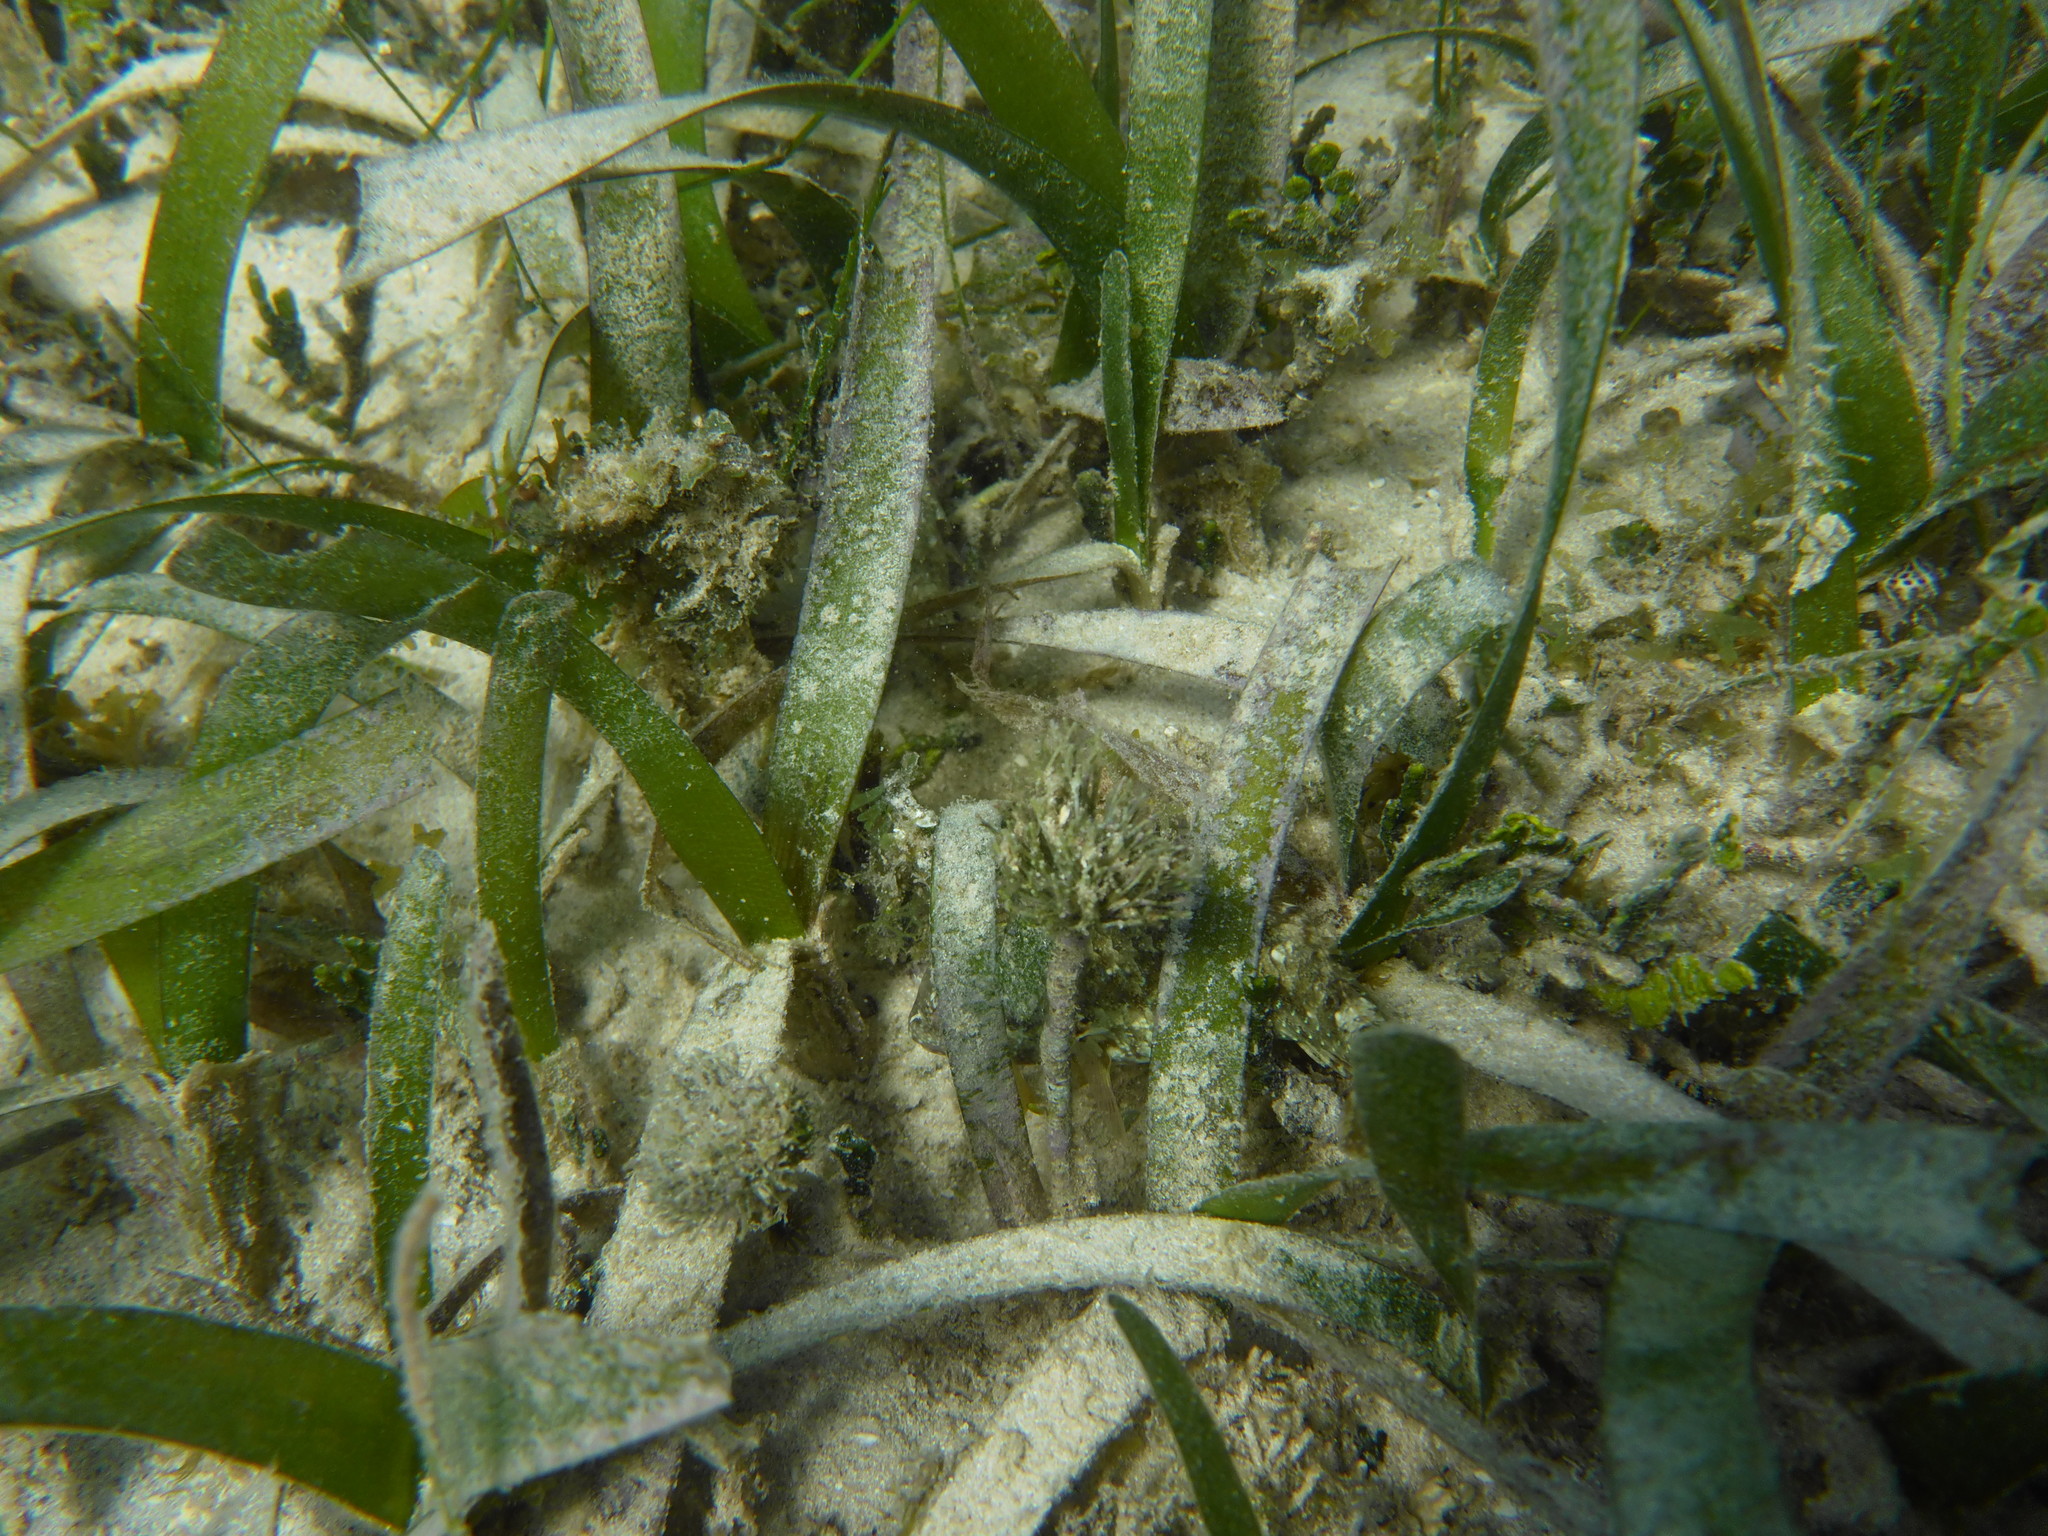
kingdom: Plantae
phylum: Tracheophyta
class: Liliopsida
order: Alismatales
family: Hydrocharitaceae
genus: Thalassia
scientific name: Thalassia testudinum
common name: Species code: tt
